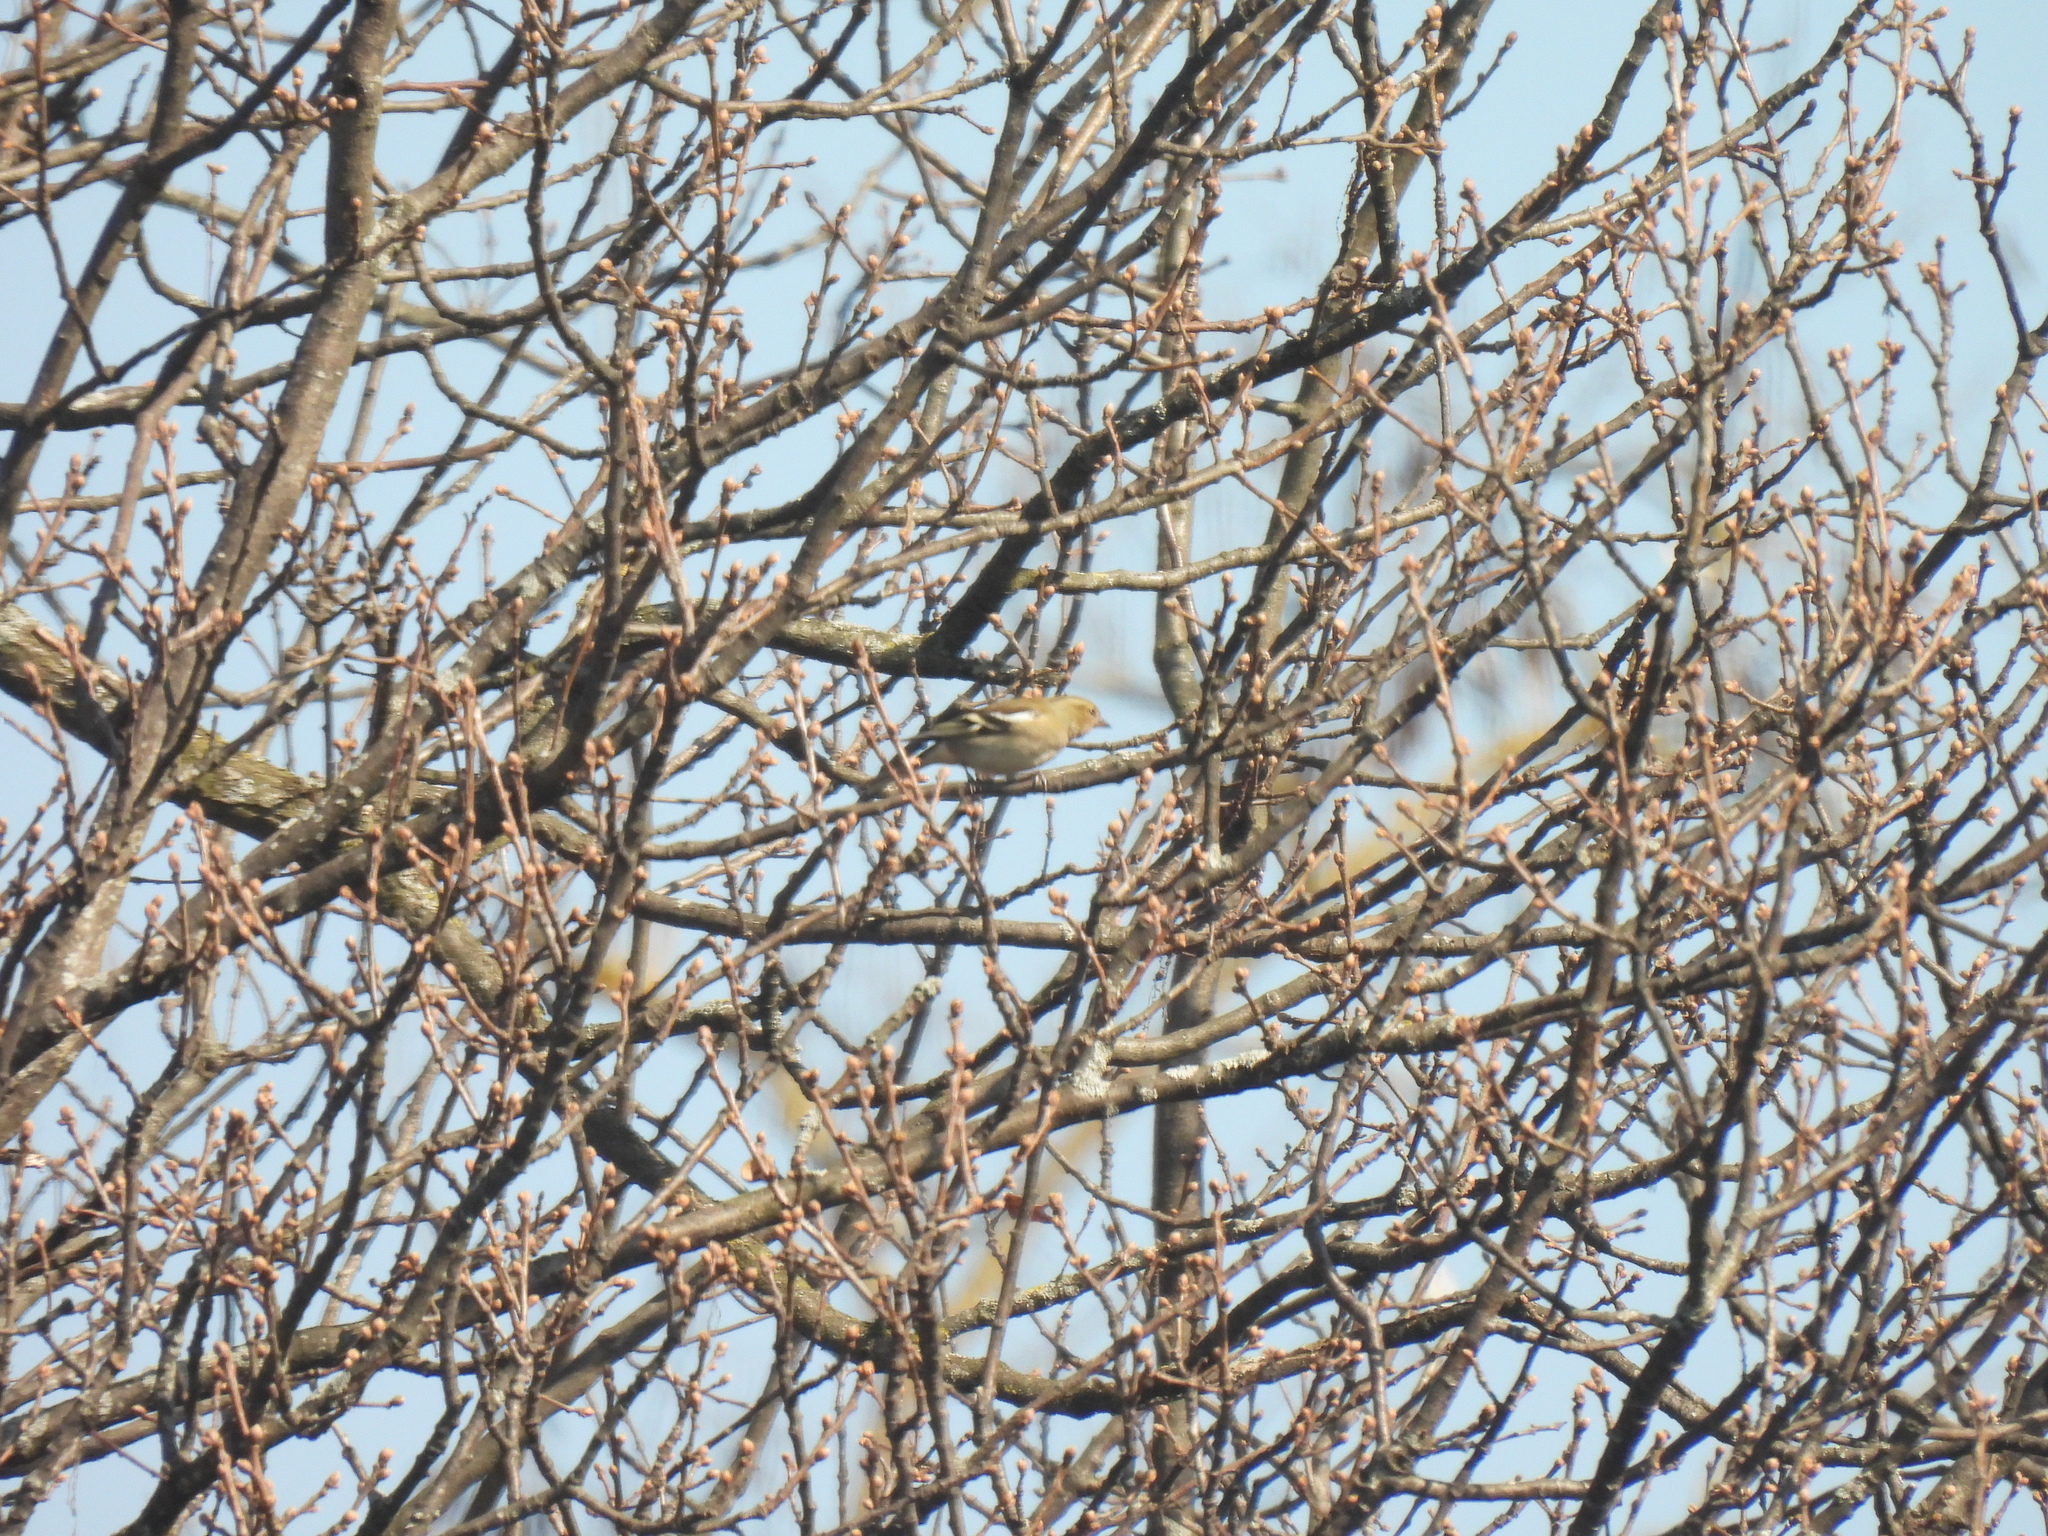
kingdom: Animalia
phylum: Chordata
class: Aves
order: Passeriformes
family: Fringillidae
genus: Fringilla
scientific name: Fringilla coelebs
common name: Common chaffinch
